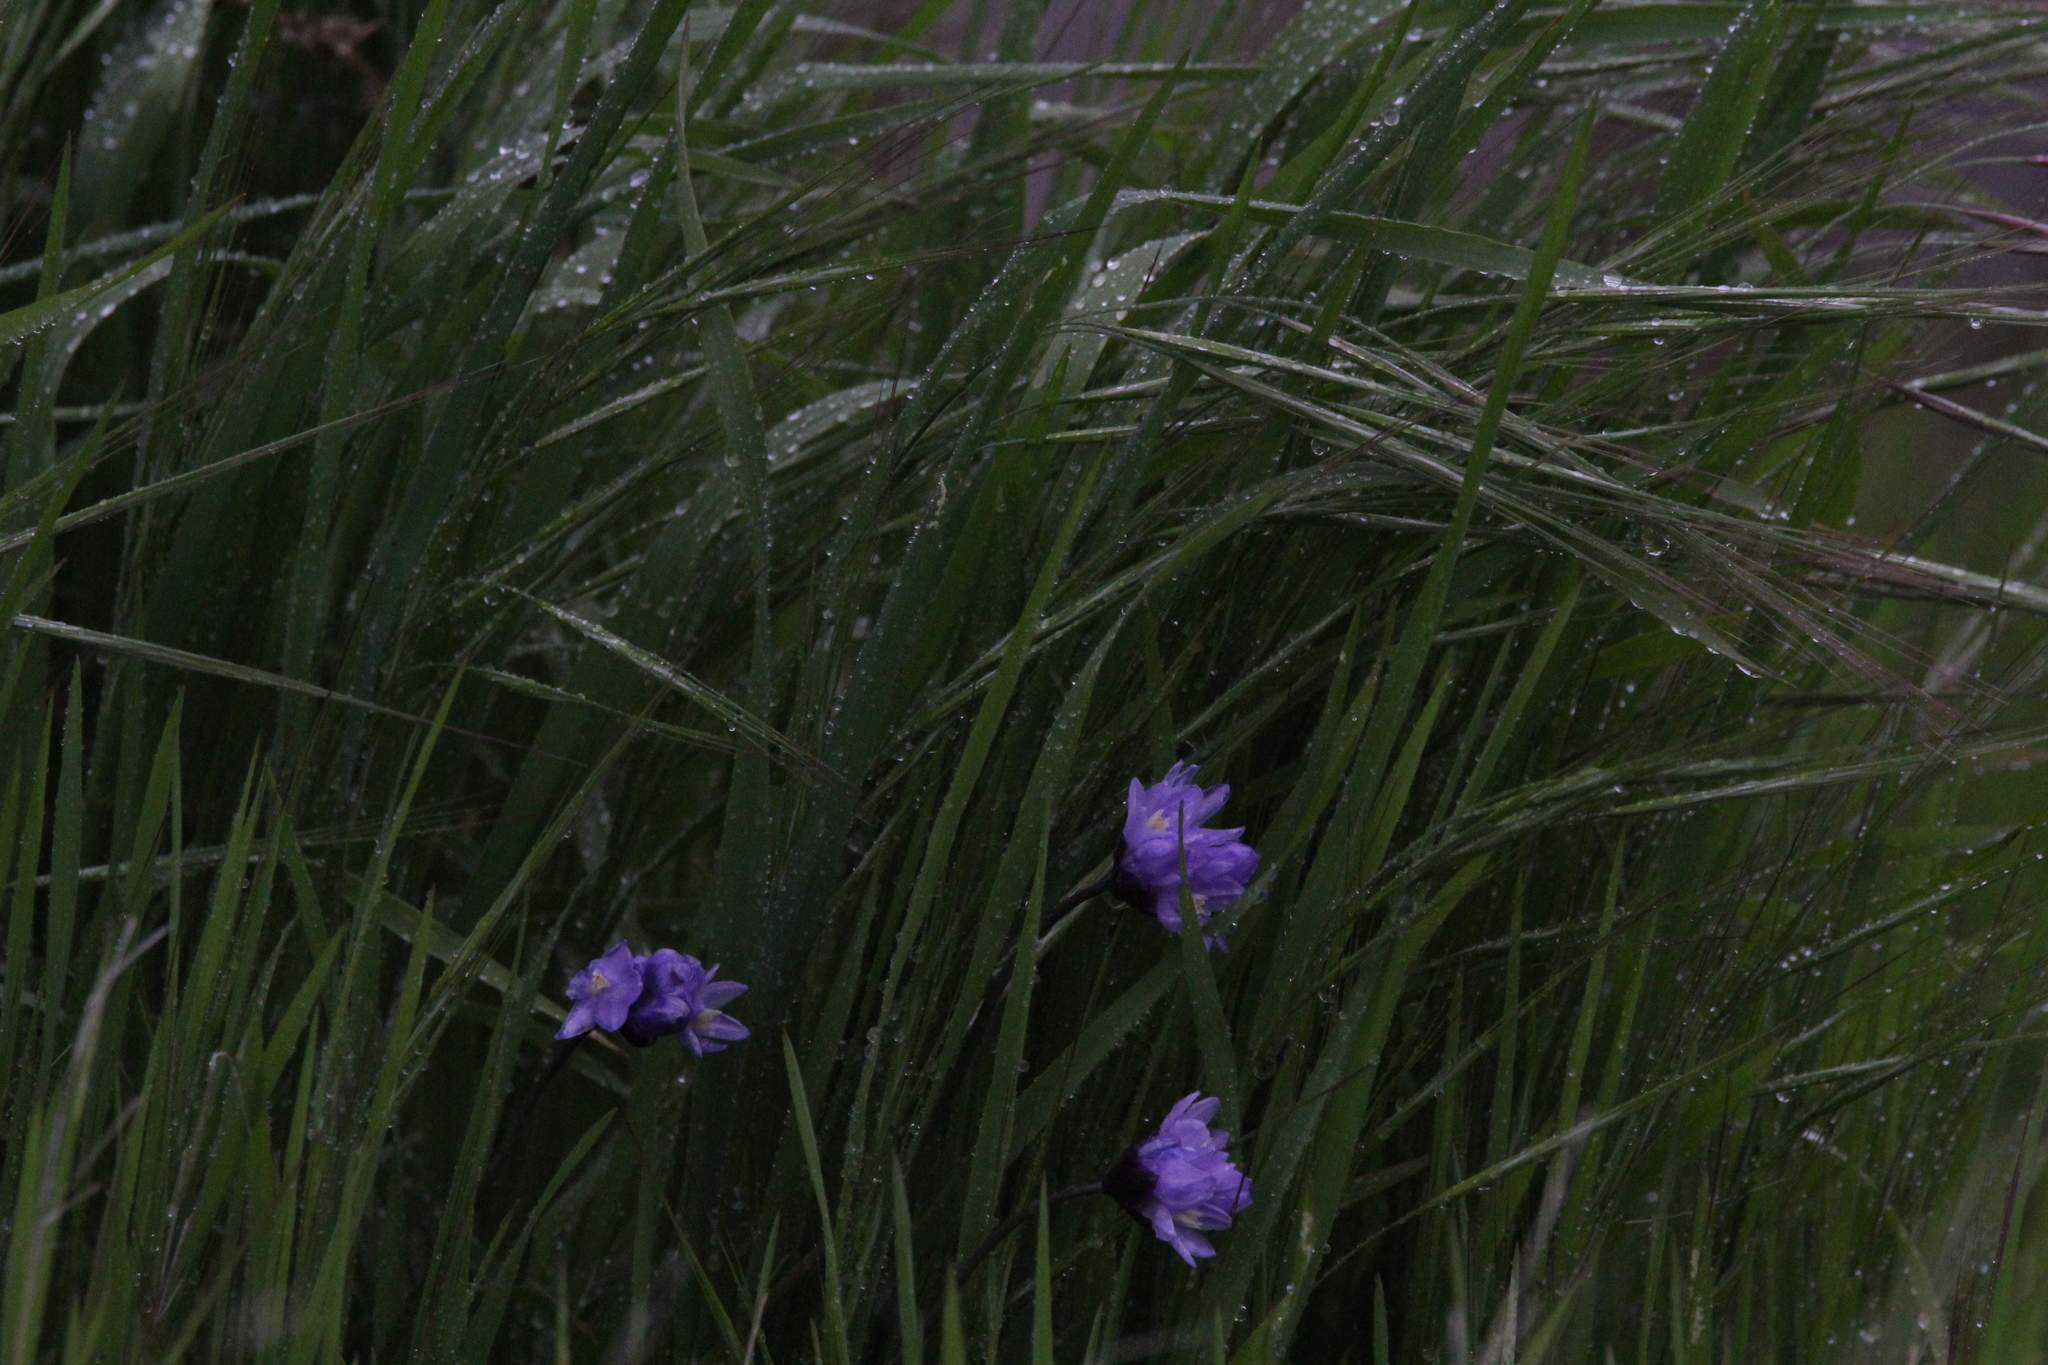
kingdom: Plantae
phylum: Tracheophyta
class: Liliopsida
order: Asparagales
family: Asparagaceae
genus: Dipterostemon
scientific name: Dipterostemon capitatus
